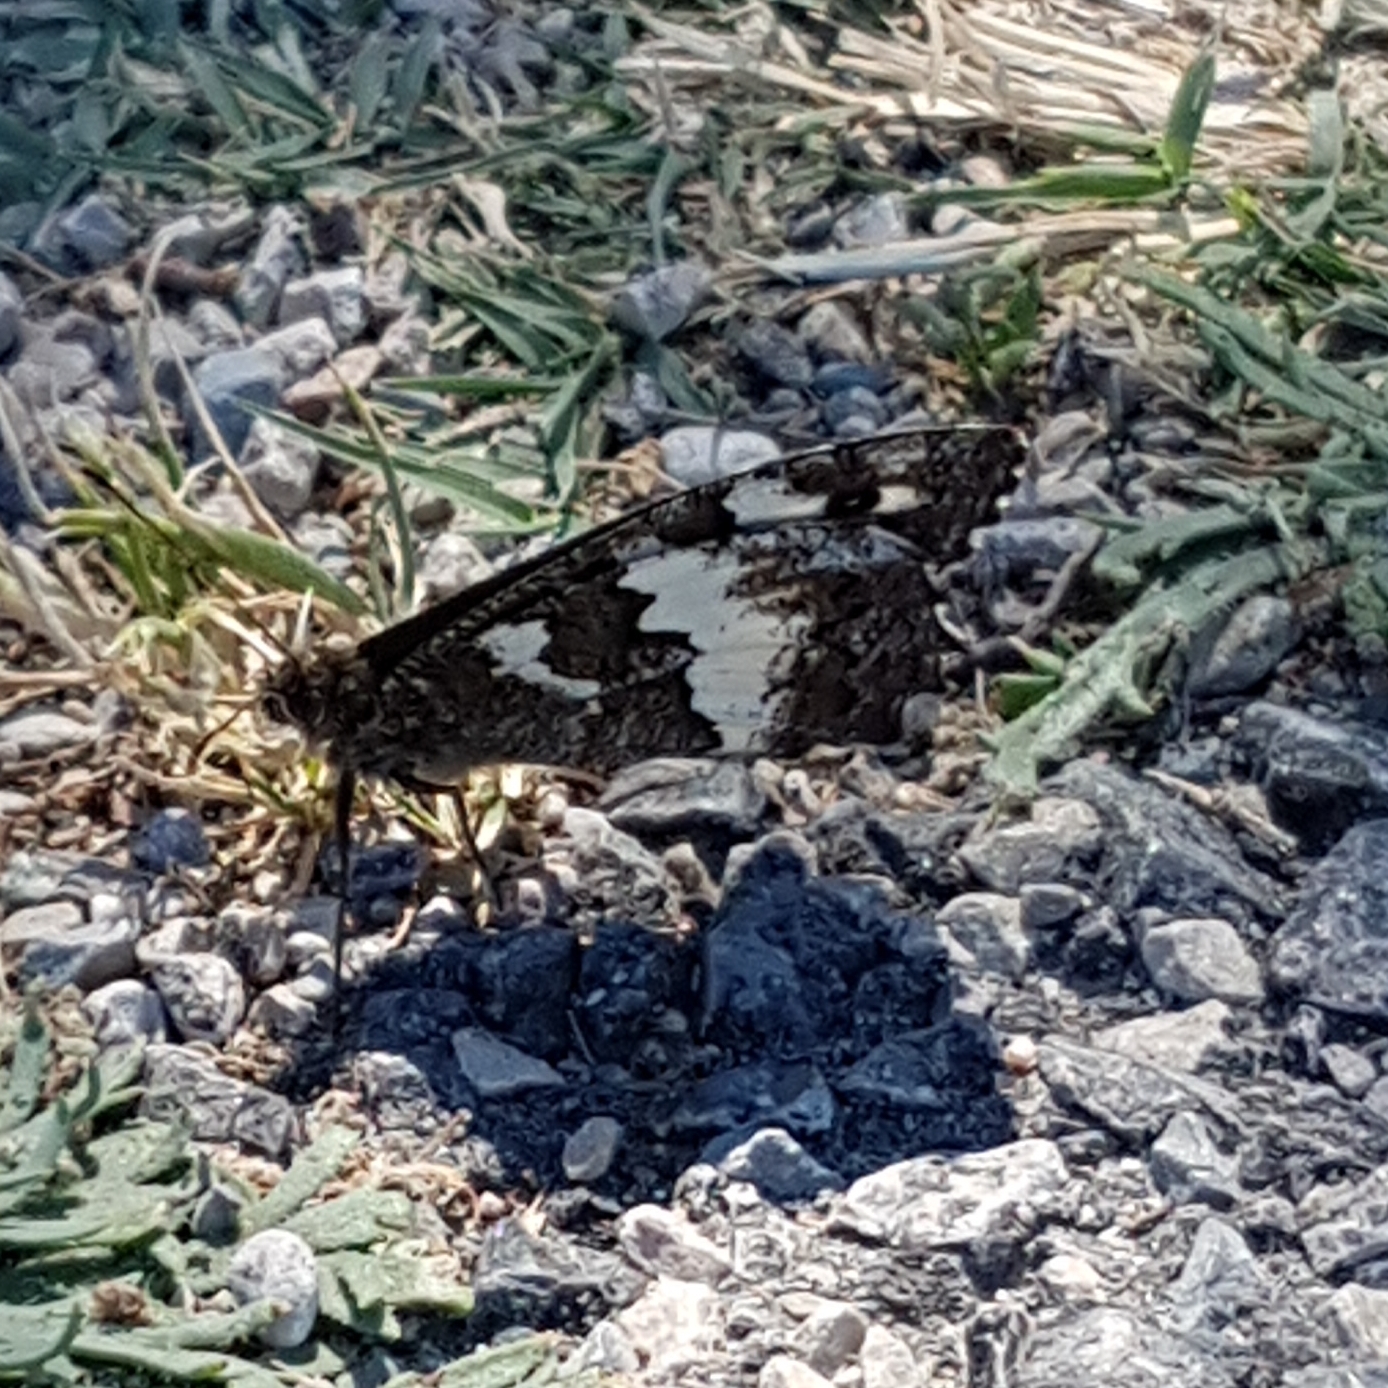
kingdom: Animalia
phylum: Arthropoda
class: Insecta
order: Lepidoptera
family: Lycaenidae
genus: Loweia
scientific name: Loweia tityrus
